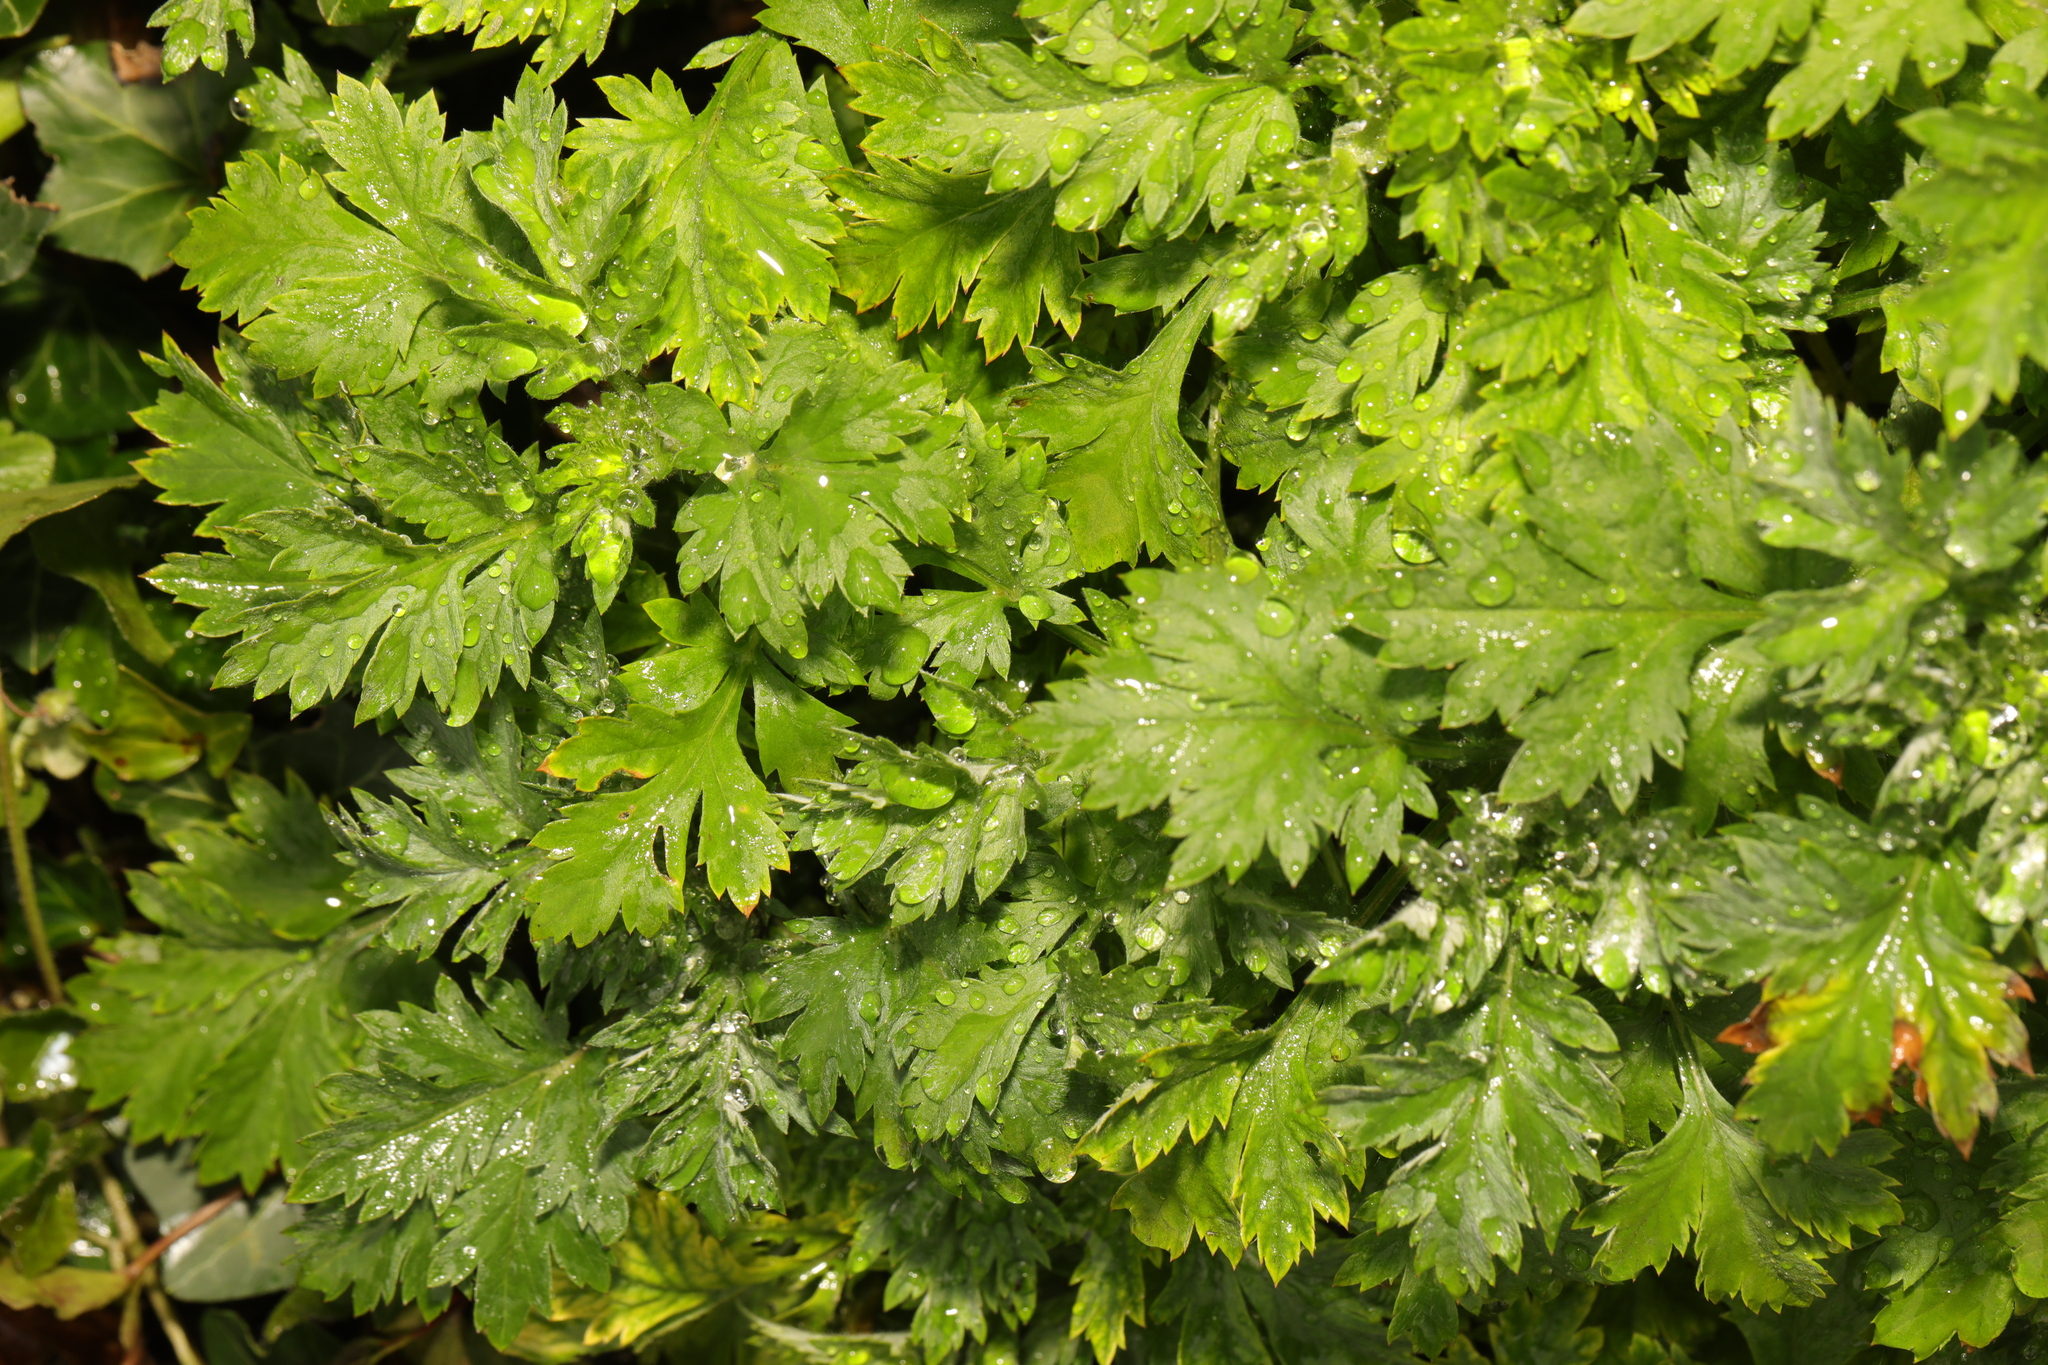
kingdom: Plantae
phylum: Tracheophyta
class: Magnoliopsida
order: Asterales
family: Asteraceae
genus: Tanacetum
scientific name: Tanacetum parthenium
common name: Feverfew
